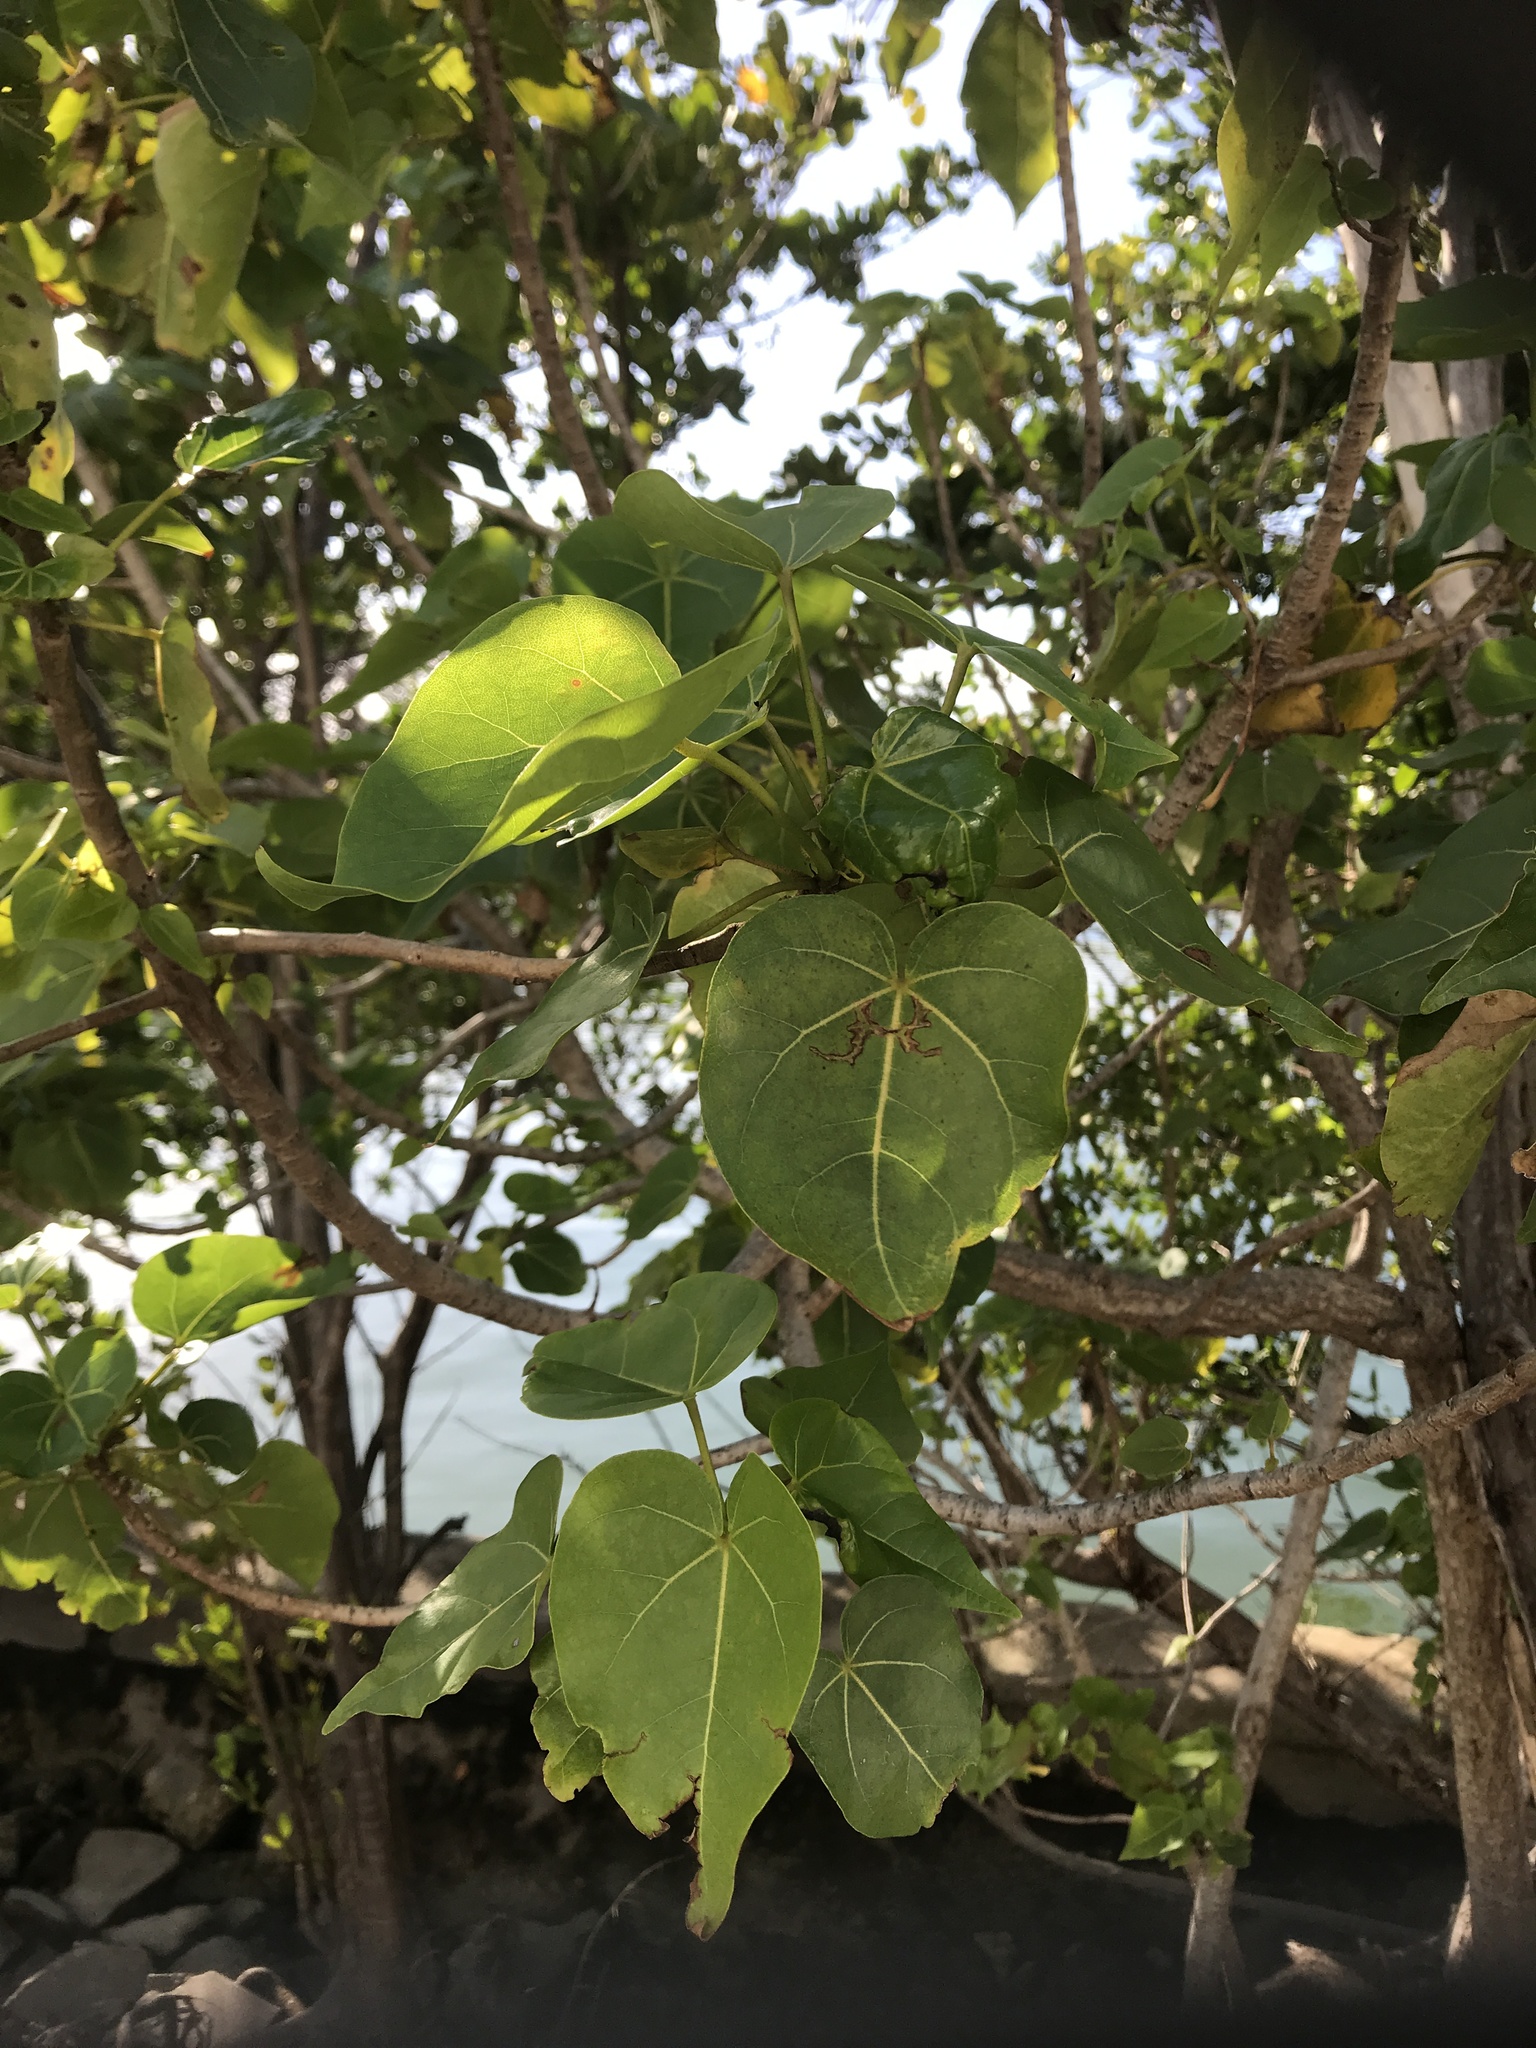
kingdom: Plantae
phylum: Tracheophyta
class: Magnoliopsida
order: Malvales
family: Malvaceae
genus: Thespesia
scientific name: Thespesia populnea
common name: Seaside mahoe
